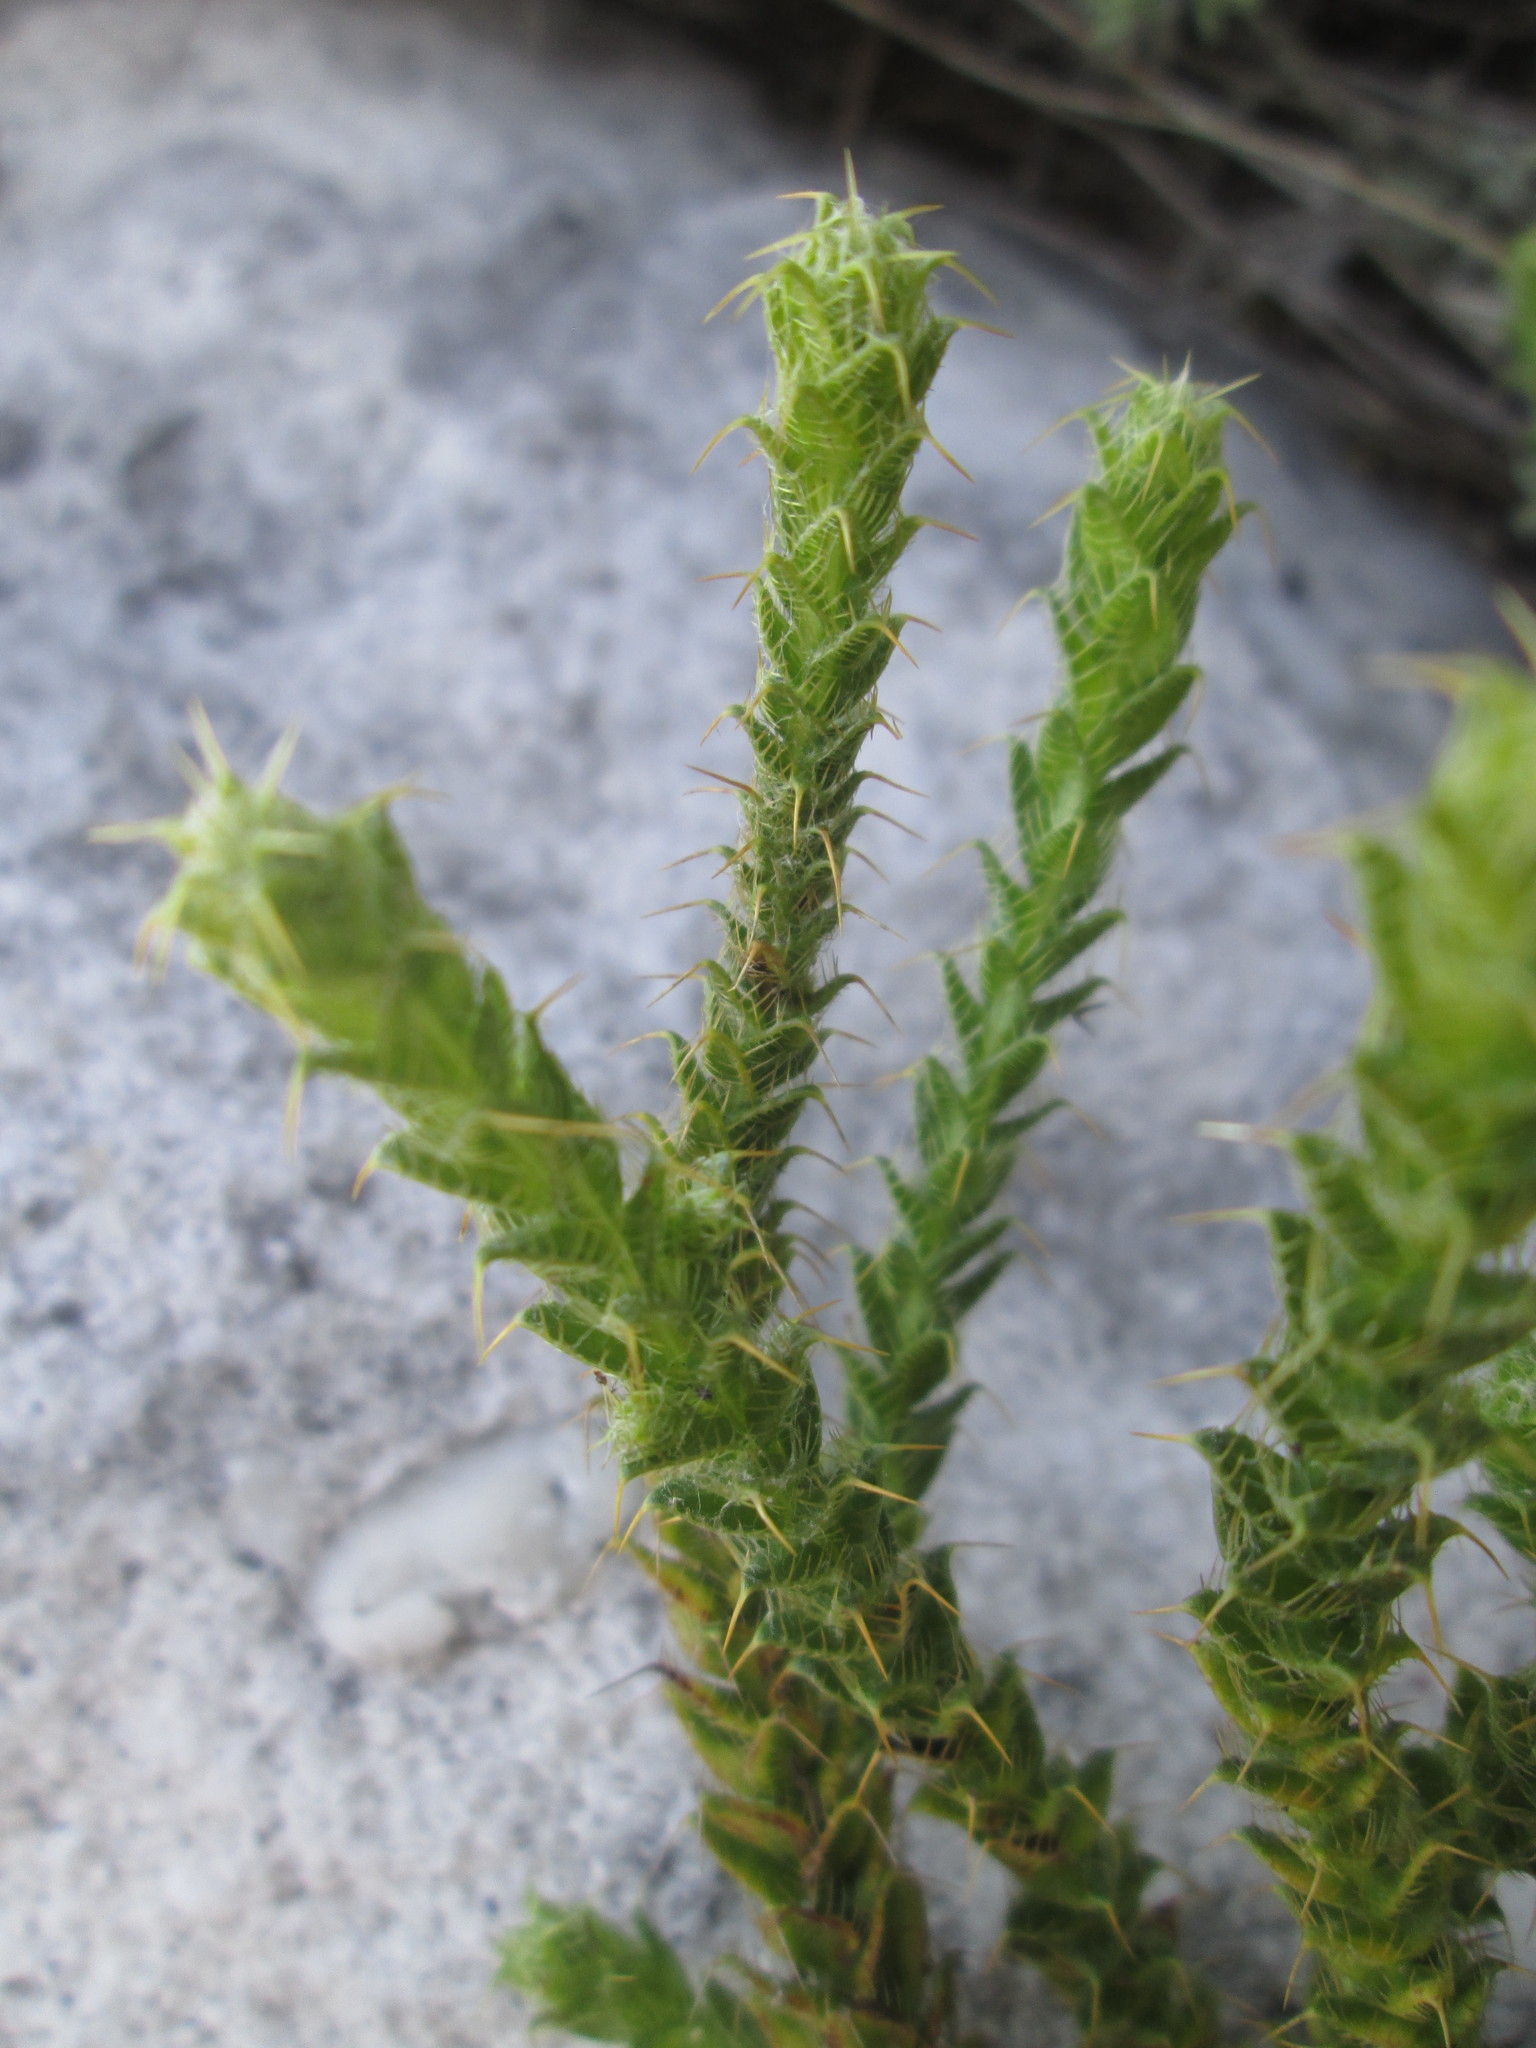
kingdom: Plantae
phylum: Tracheophyta
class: Magnoliopsida
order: Asterales
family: Asteraceae
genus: Cullumia
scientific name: Cullumia reticulata
